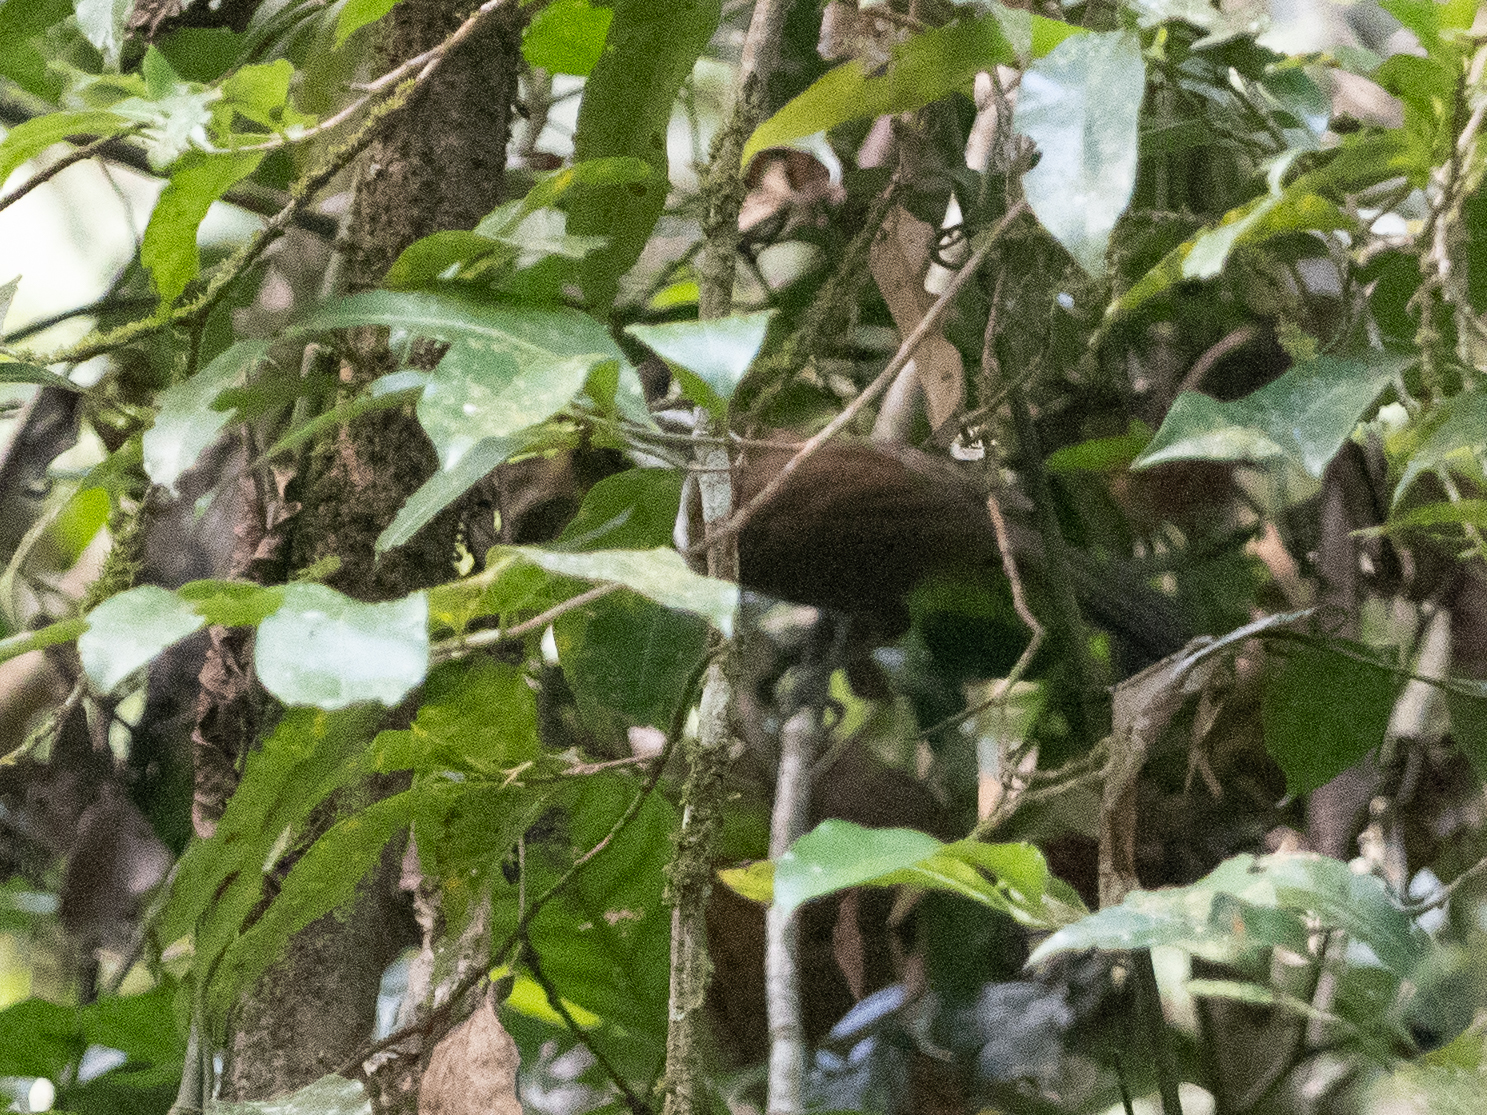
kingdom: Animalia
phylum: Chordata
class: Aves
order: Passeriformes
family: Timaliidae
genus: Pomatorhinus
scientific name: Pomatorhinus melanurus
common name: Sri lanka scimitar-babbler
